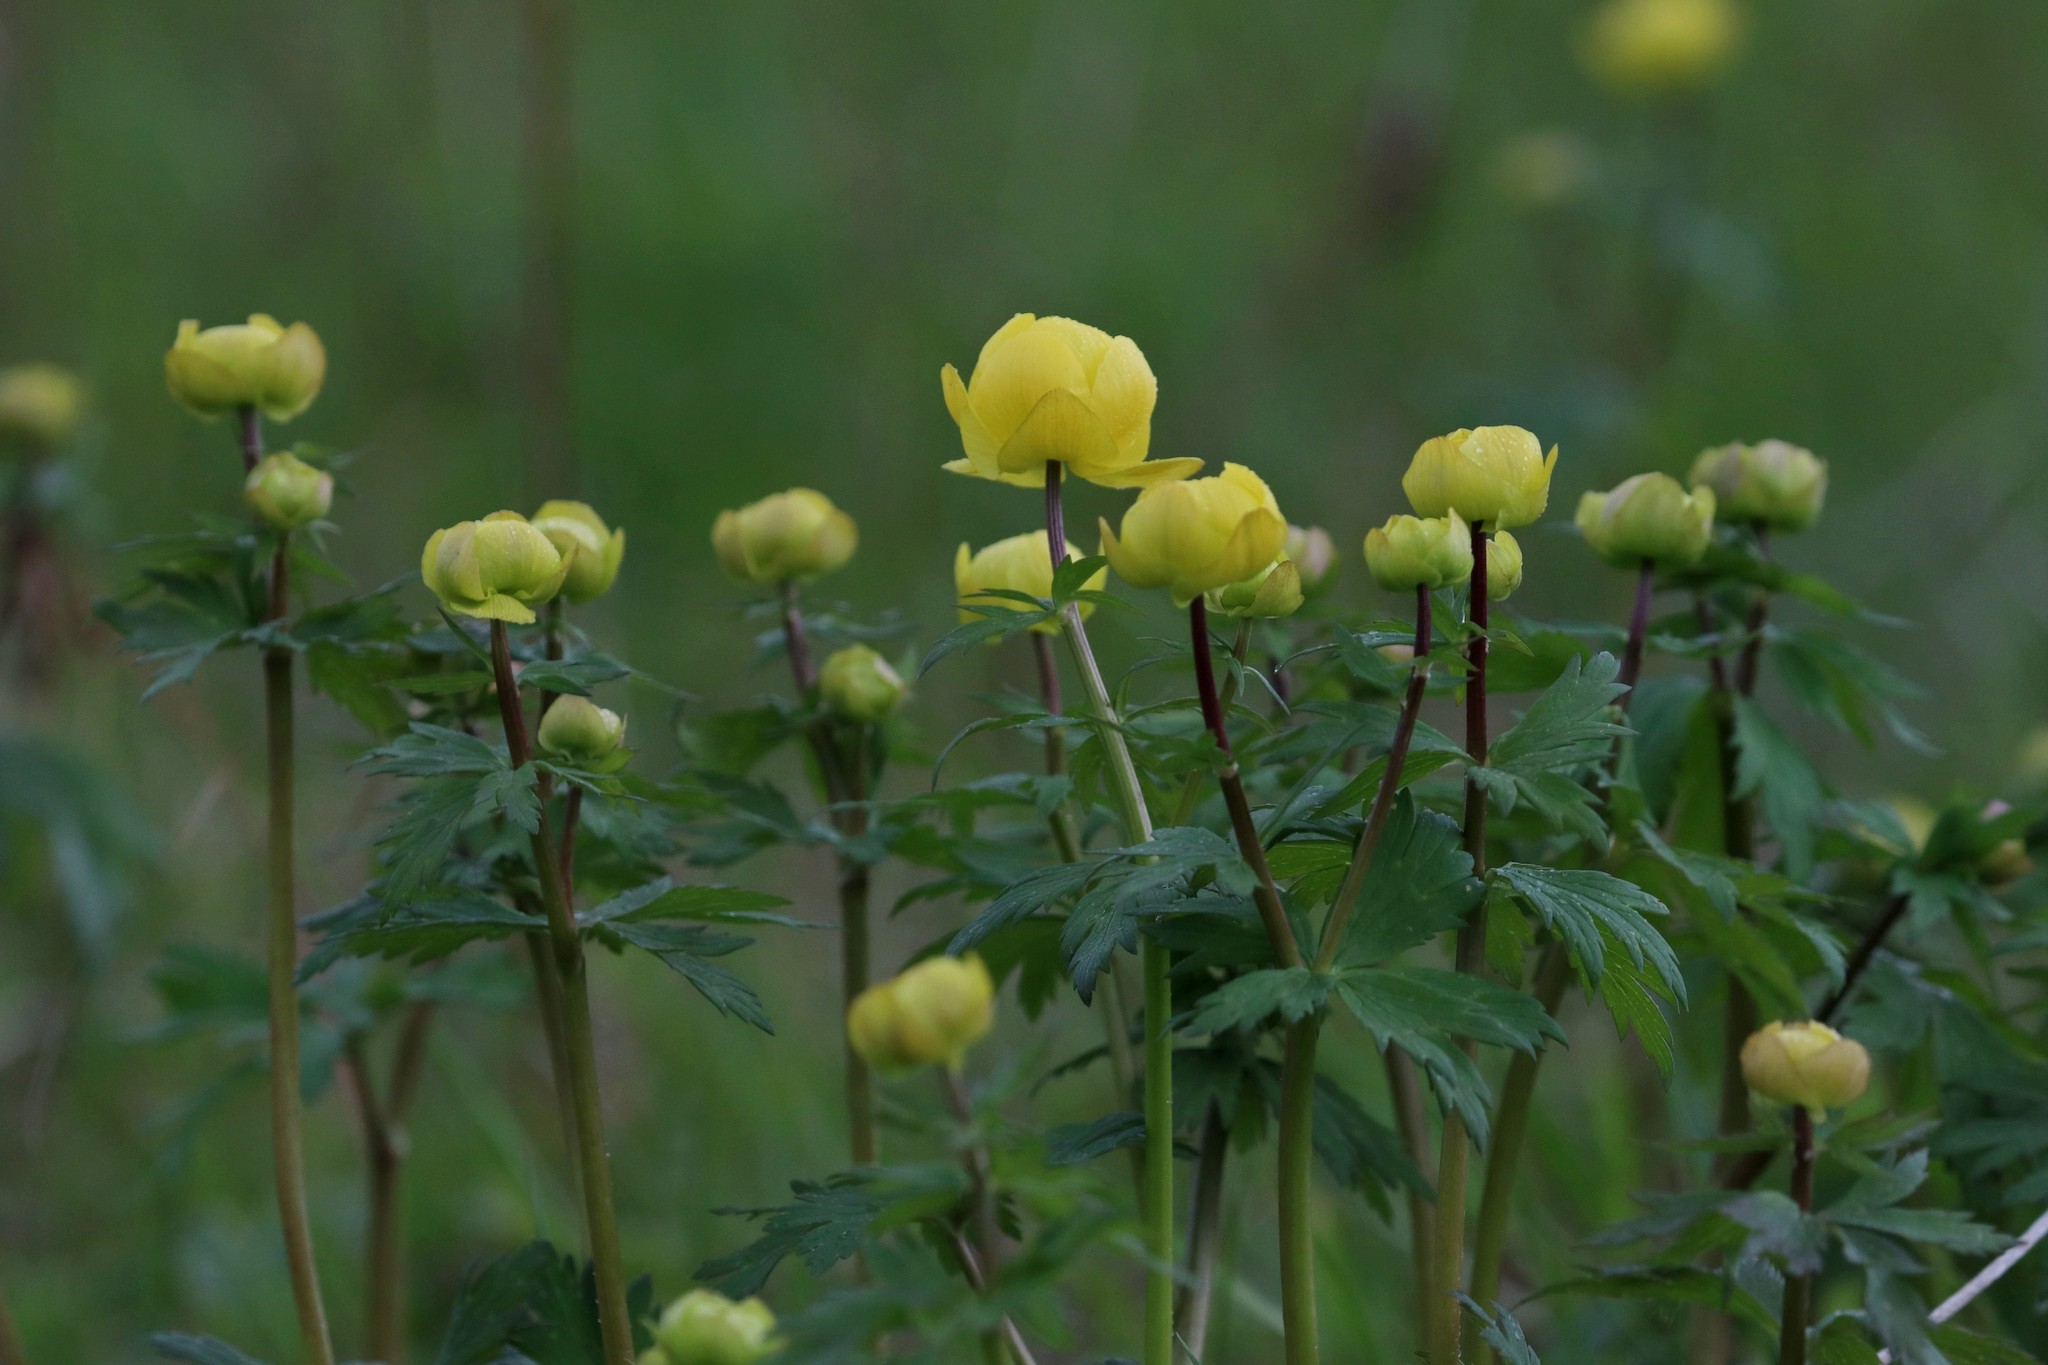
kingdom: Plantae
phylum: Tracheophyta
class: Magnoliopsida
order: Ranunculales
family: Ranunculaceae
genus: Trollius
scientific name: Trollius europaeus
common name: European globeflower
